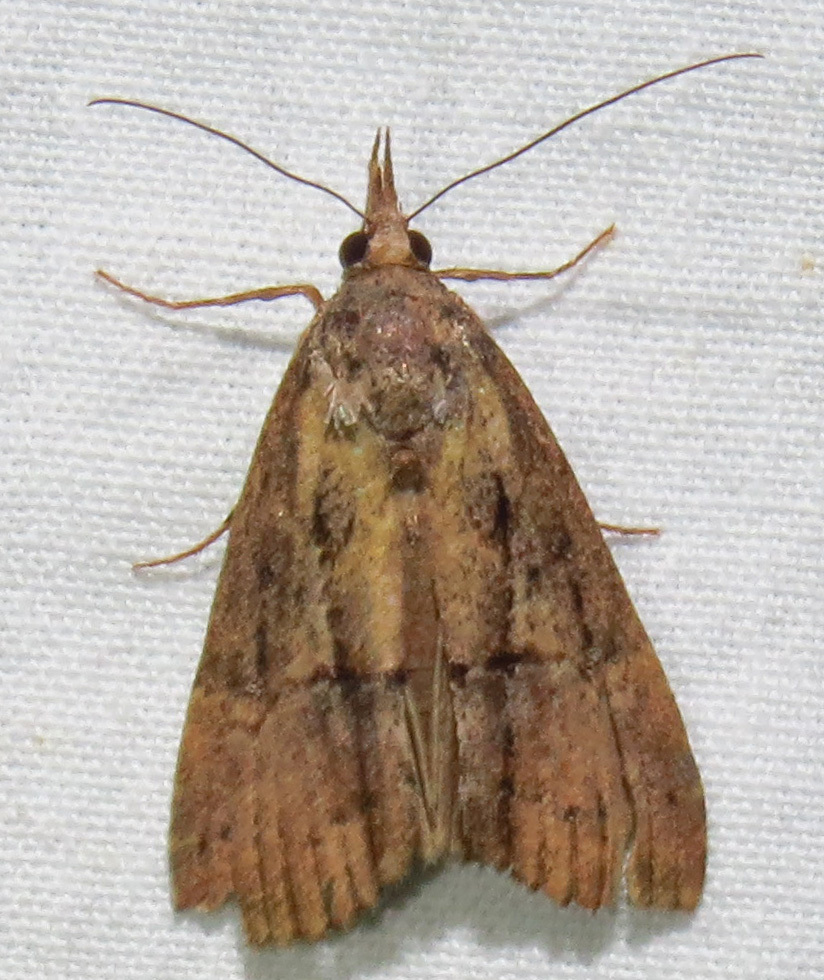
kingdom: Animalia
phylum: Arthropoda
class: Insecta
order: Lepidoptera
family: Erebidae
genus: Hypena
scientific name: Hypena scabra
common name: Green cloverworm
